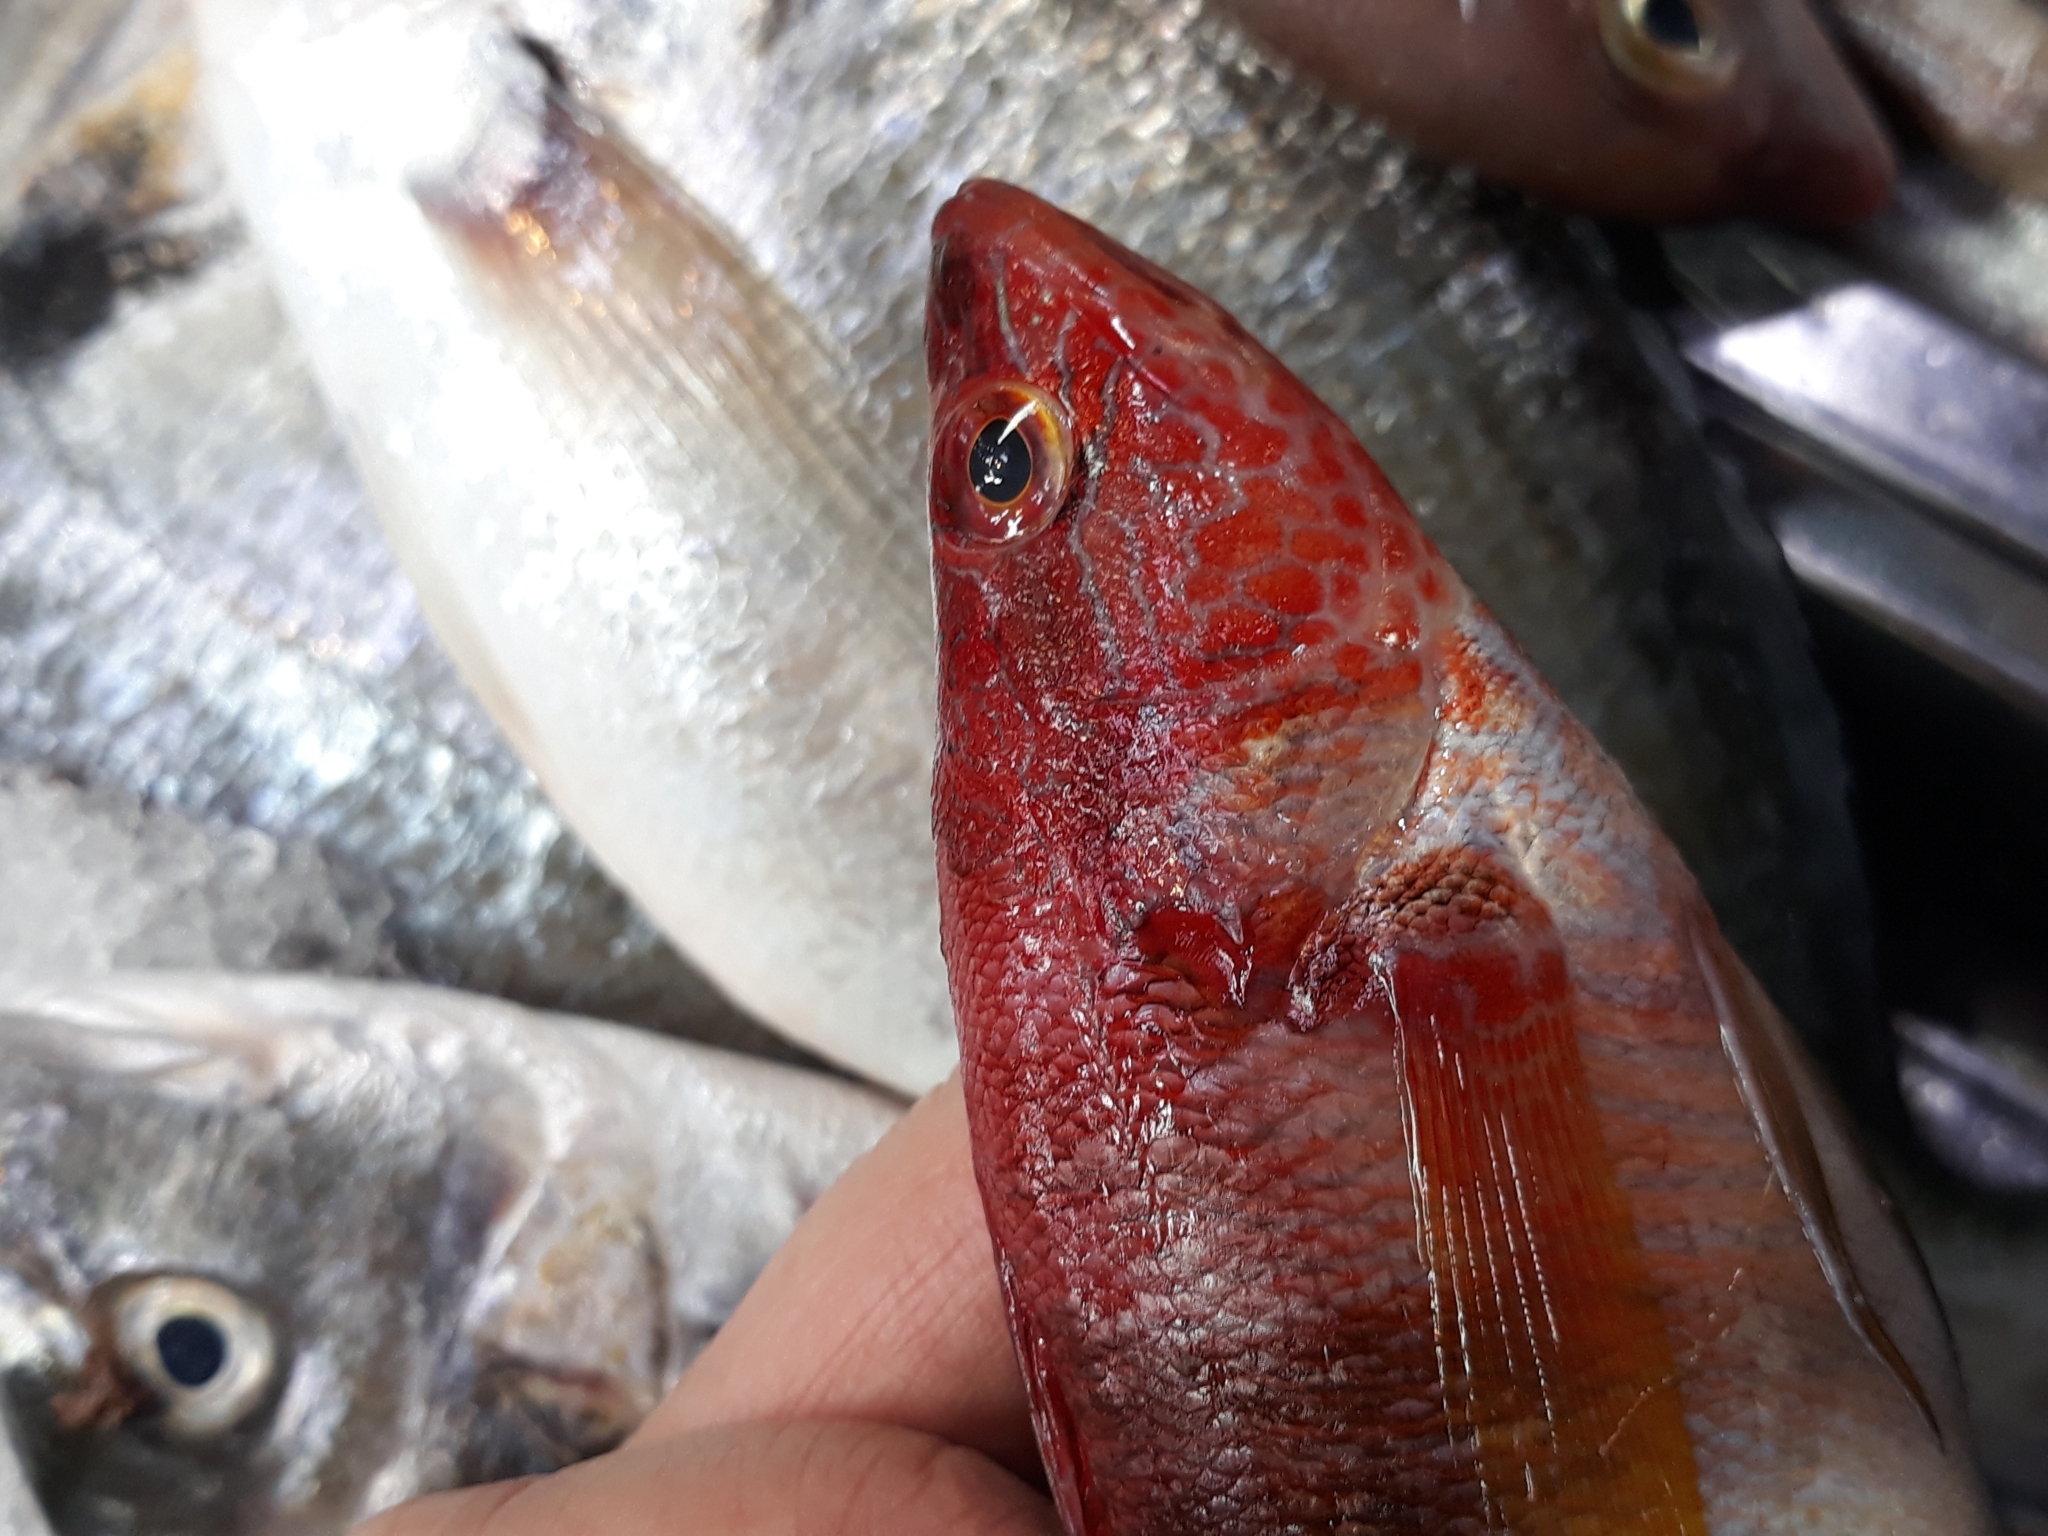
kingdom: Animalia
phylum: Chordata
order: Perciformes
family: Serranidae
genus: Serranus
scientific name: Serranus scriba
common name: Painted comber
